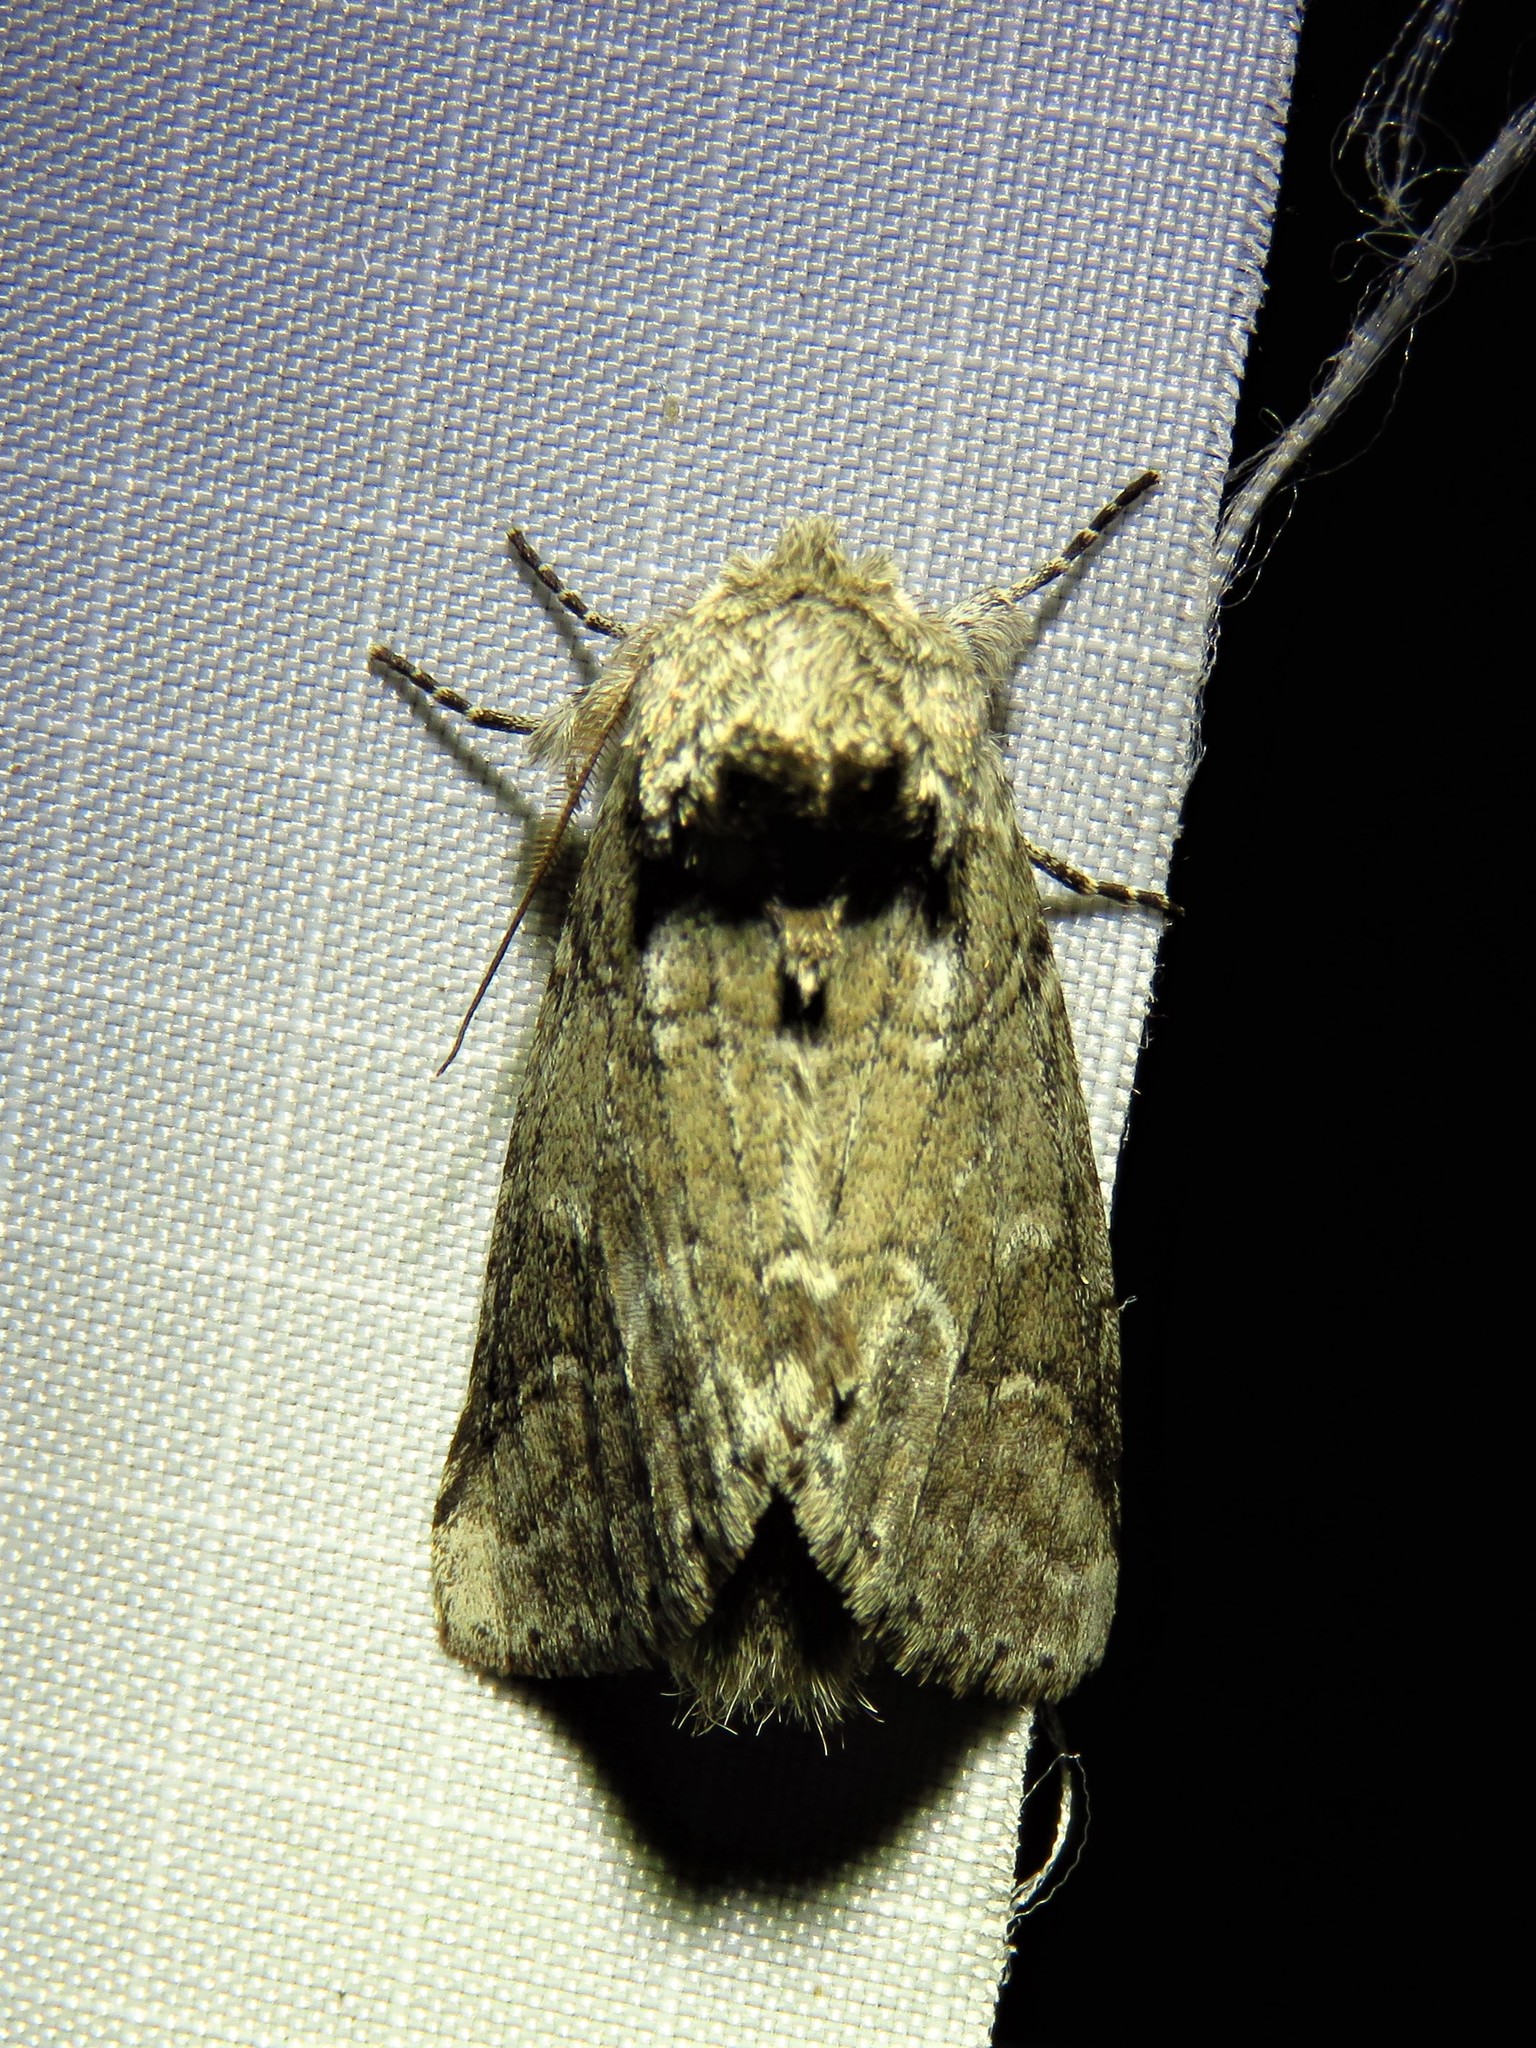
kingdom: Animalia
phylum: Arthropoda
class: Insecta
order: Lepidoptera
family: Notodontidae
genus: Lochmaeus
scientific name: Lochmaeus bilineata
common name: Double-lined prominent
